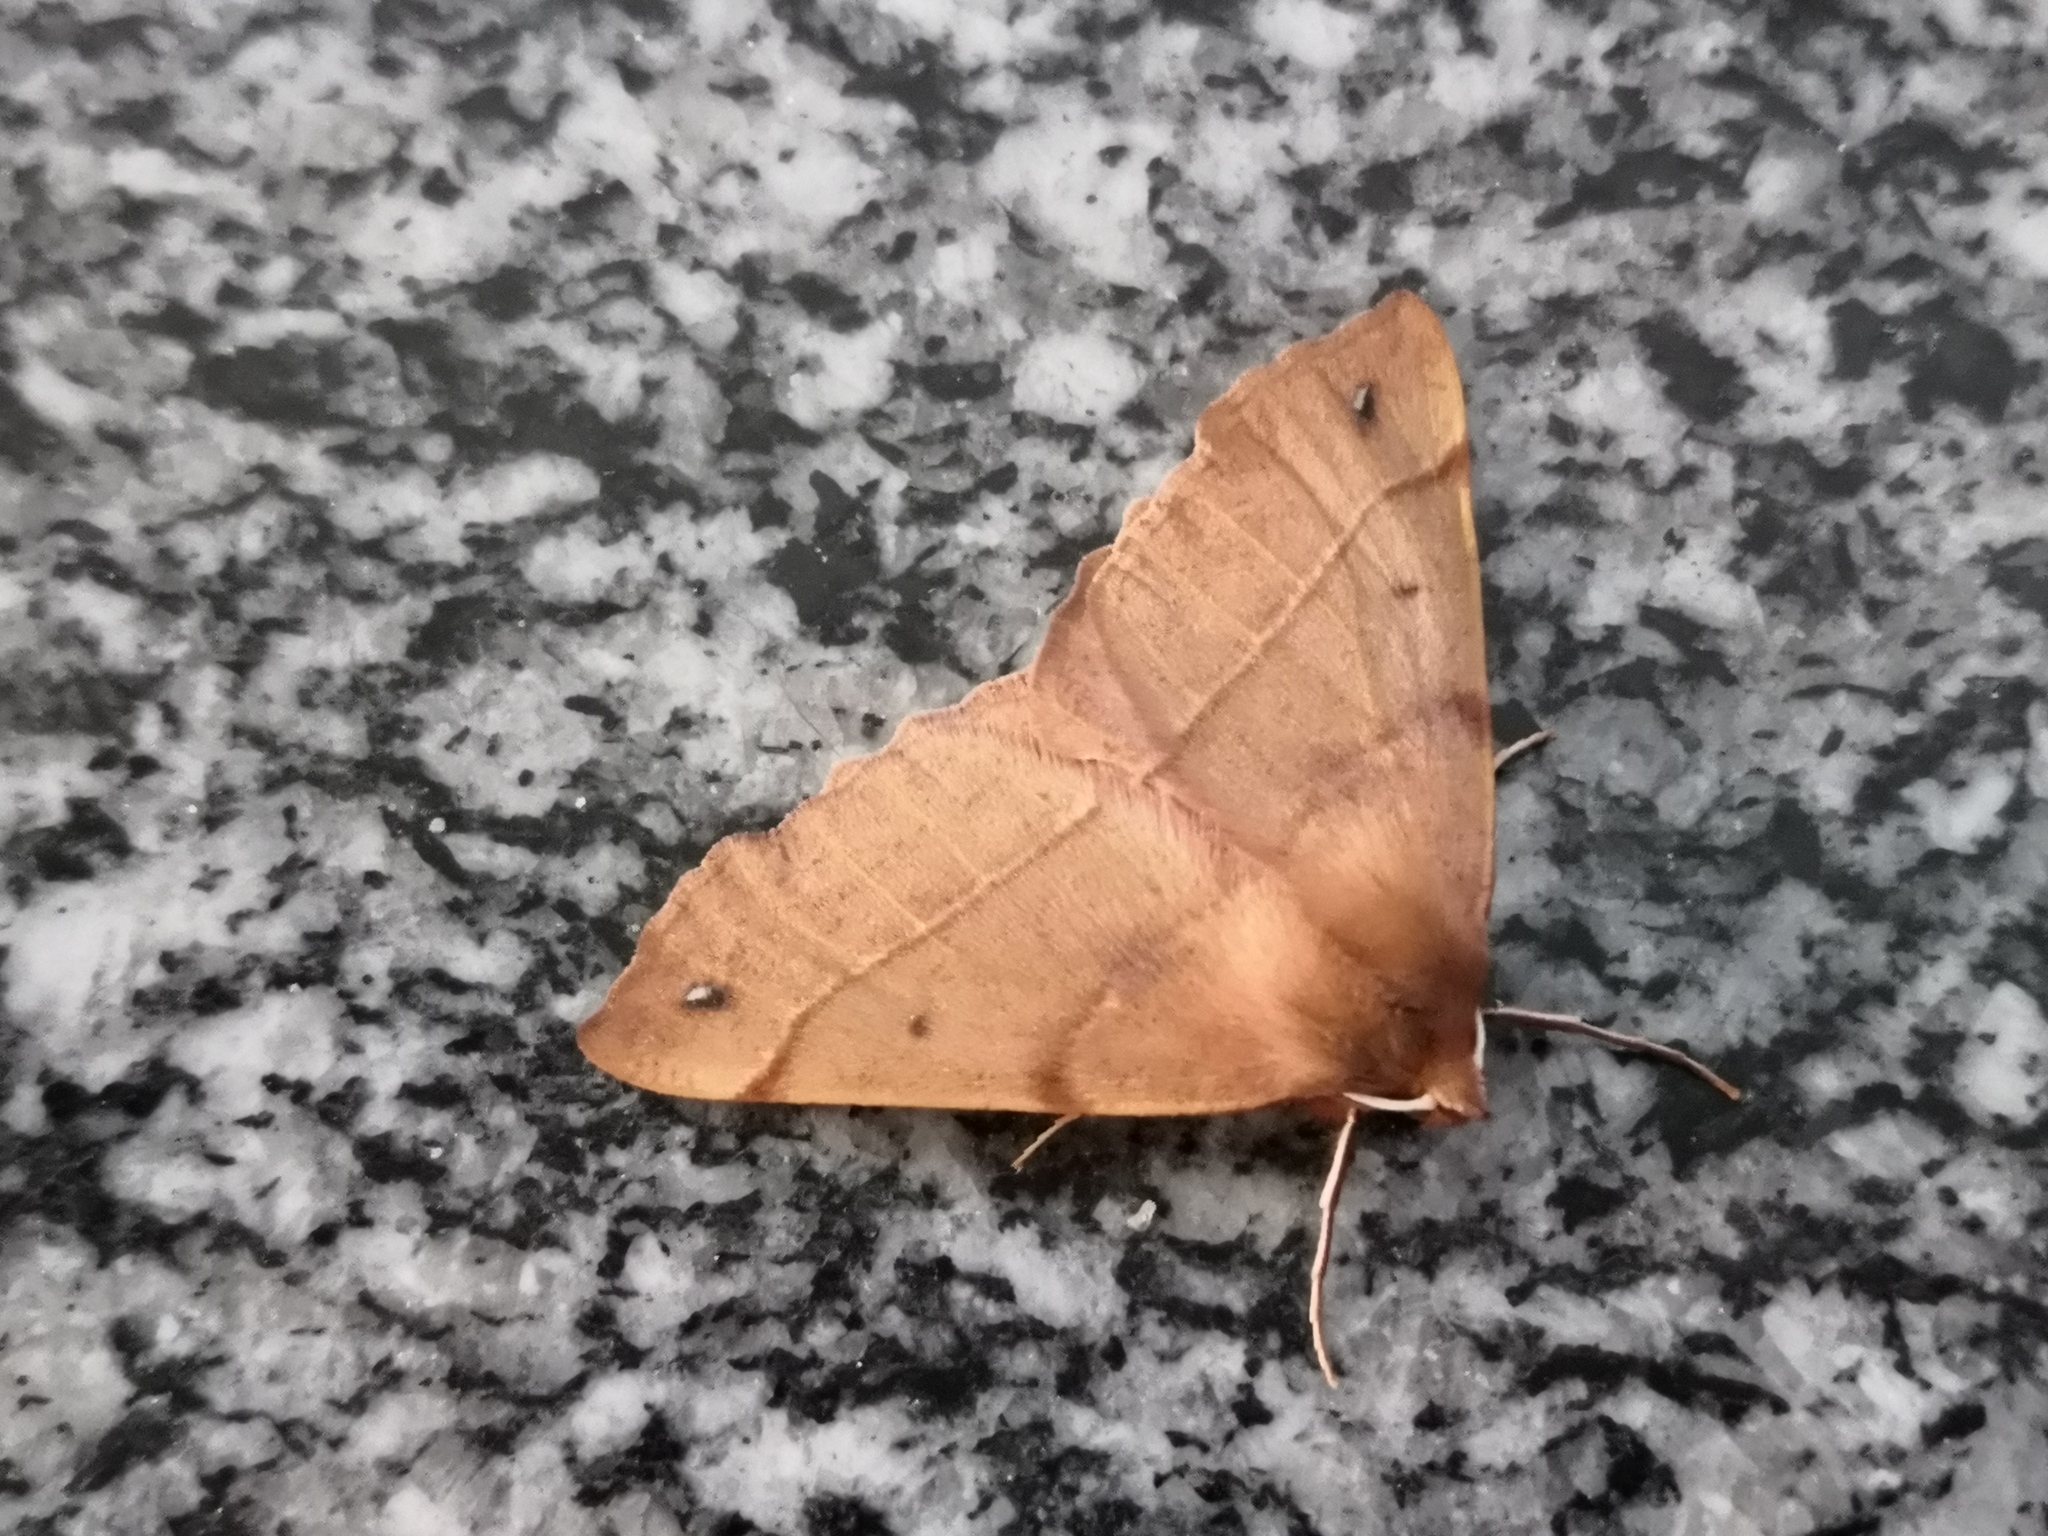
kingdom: Animalia
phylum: Arthropoda
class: Insecta
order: Lepidoptera
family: Geometridae
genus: Colotois
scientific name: Colotois pennaria
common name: Feathered thorn
